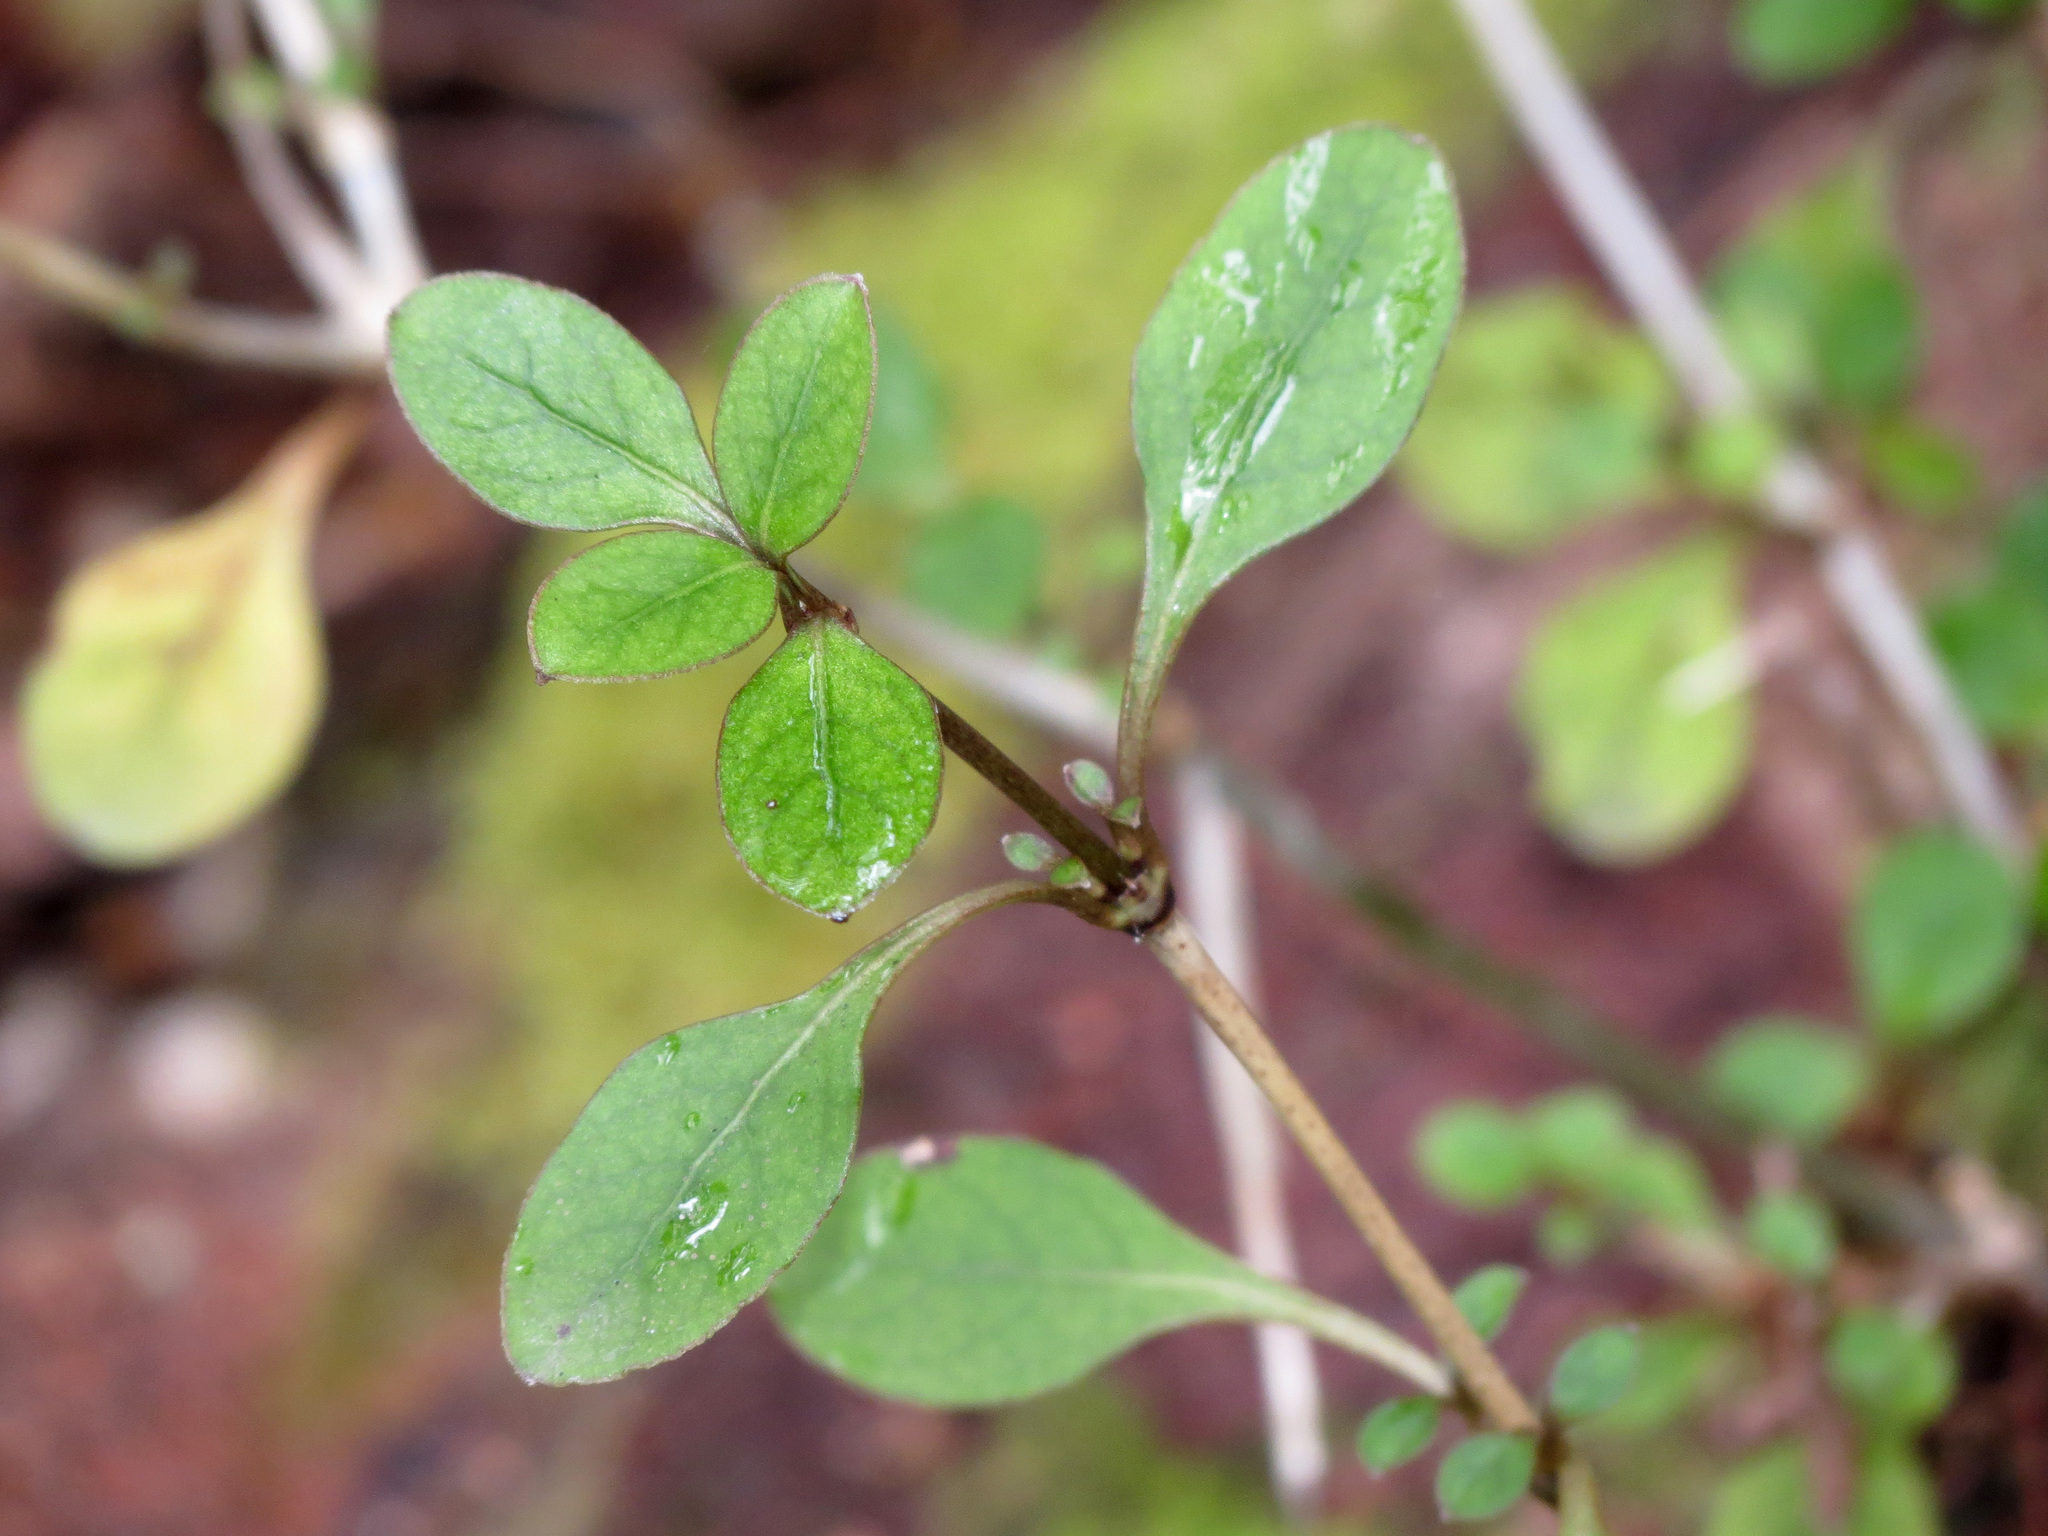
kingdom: Plantae
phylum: Tracheophyta
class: Magnoliopsida
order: Gentianales
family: Rubiaceae
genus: Coprosma
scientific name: Coprosma foetidissima
